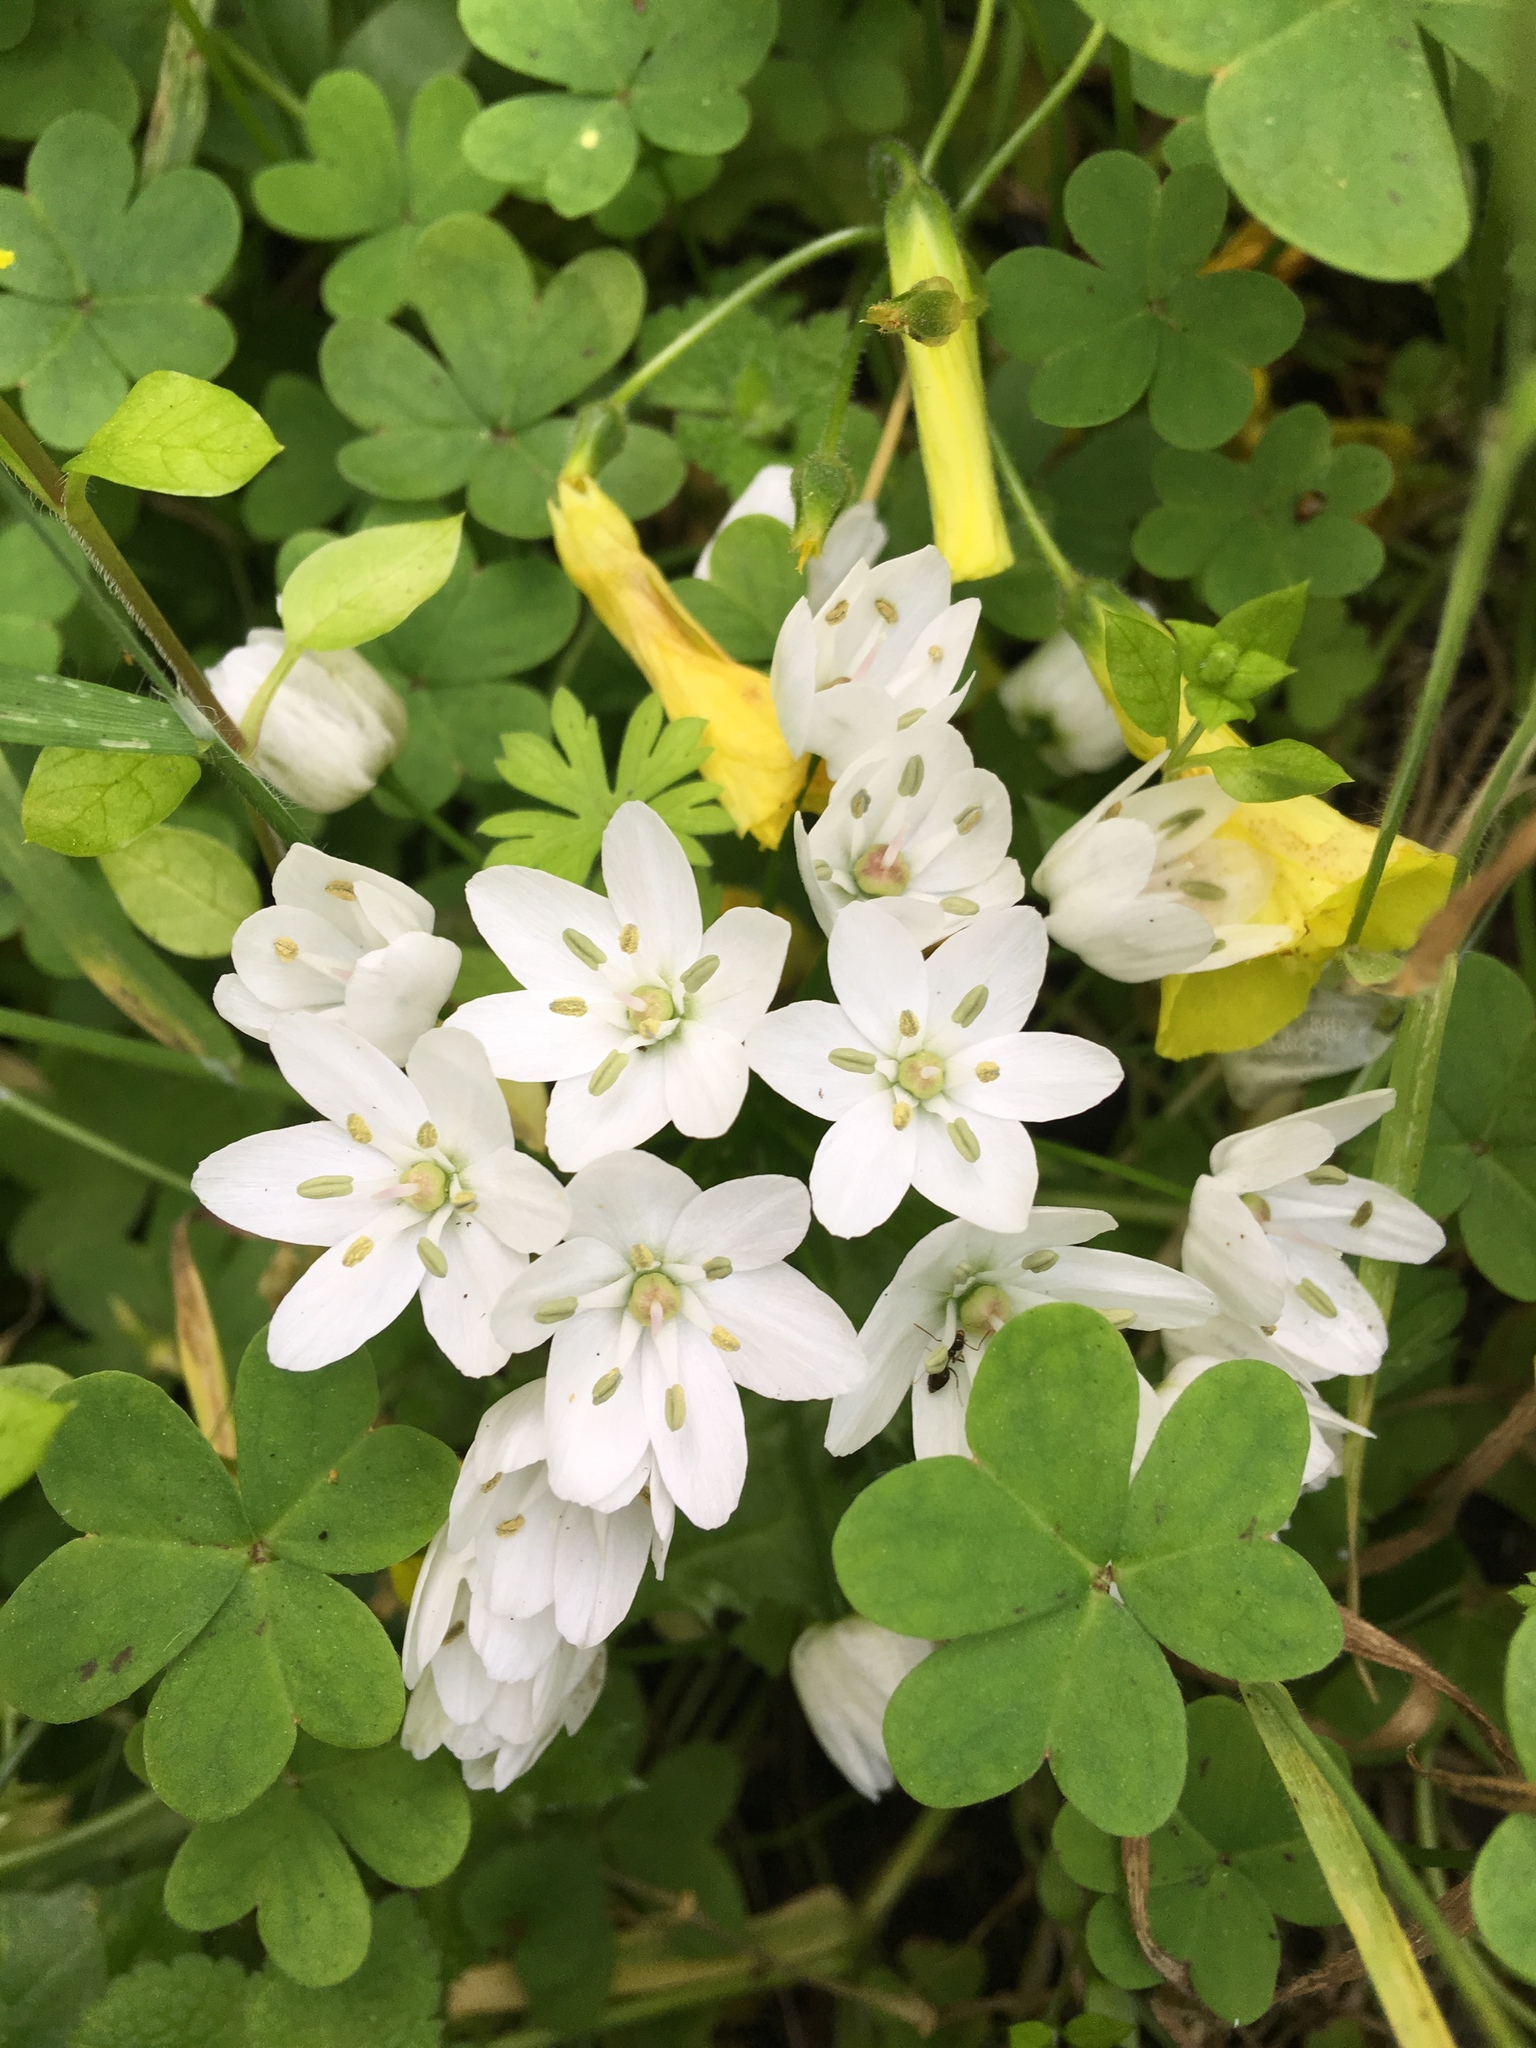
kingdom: Plantae
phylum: Tracheophyta
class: Liliopsida
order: Asparagales
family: Amaryllidaceae
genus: Allium
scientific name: Allium neapolitanum
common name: Neapolitan garlic
